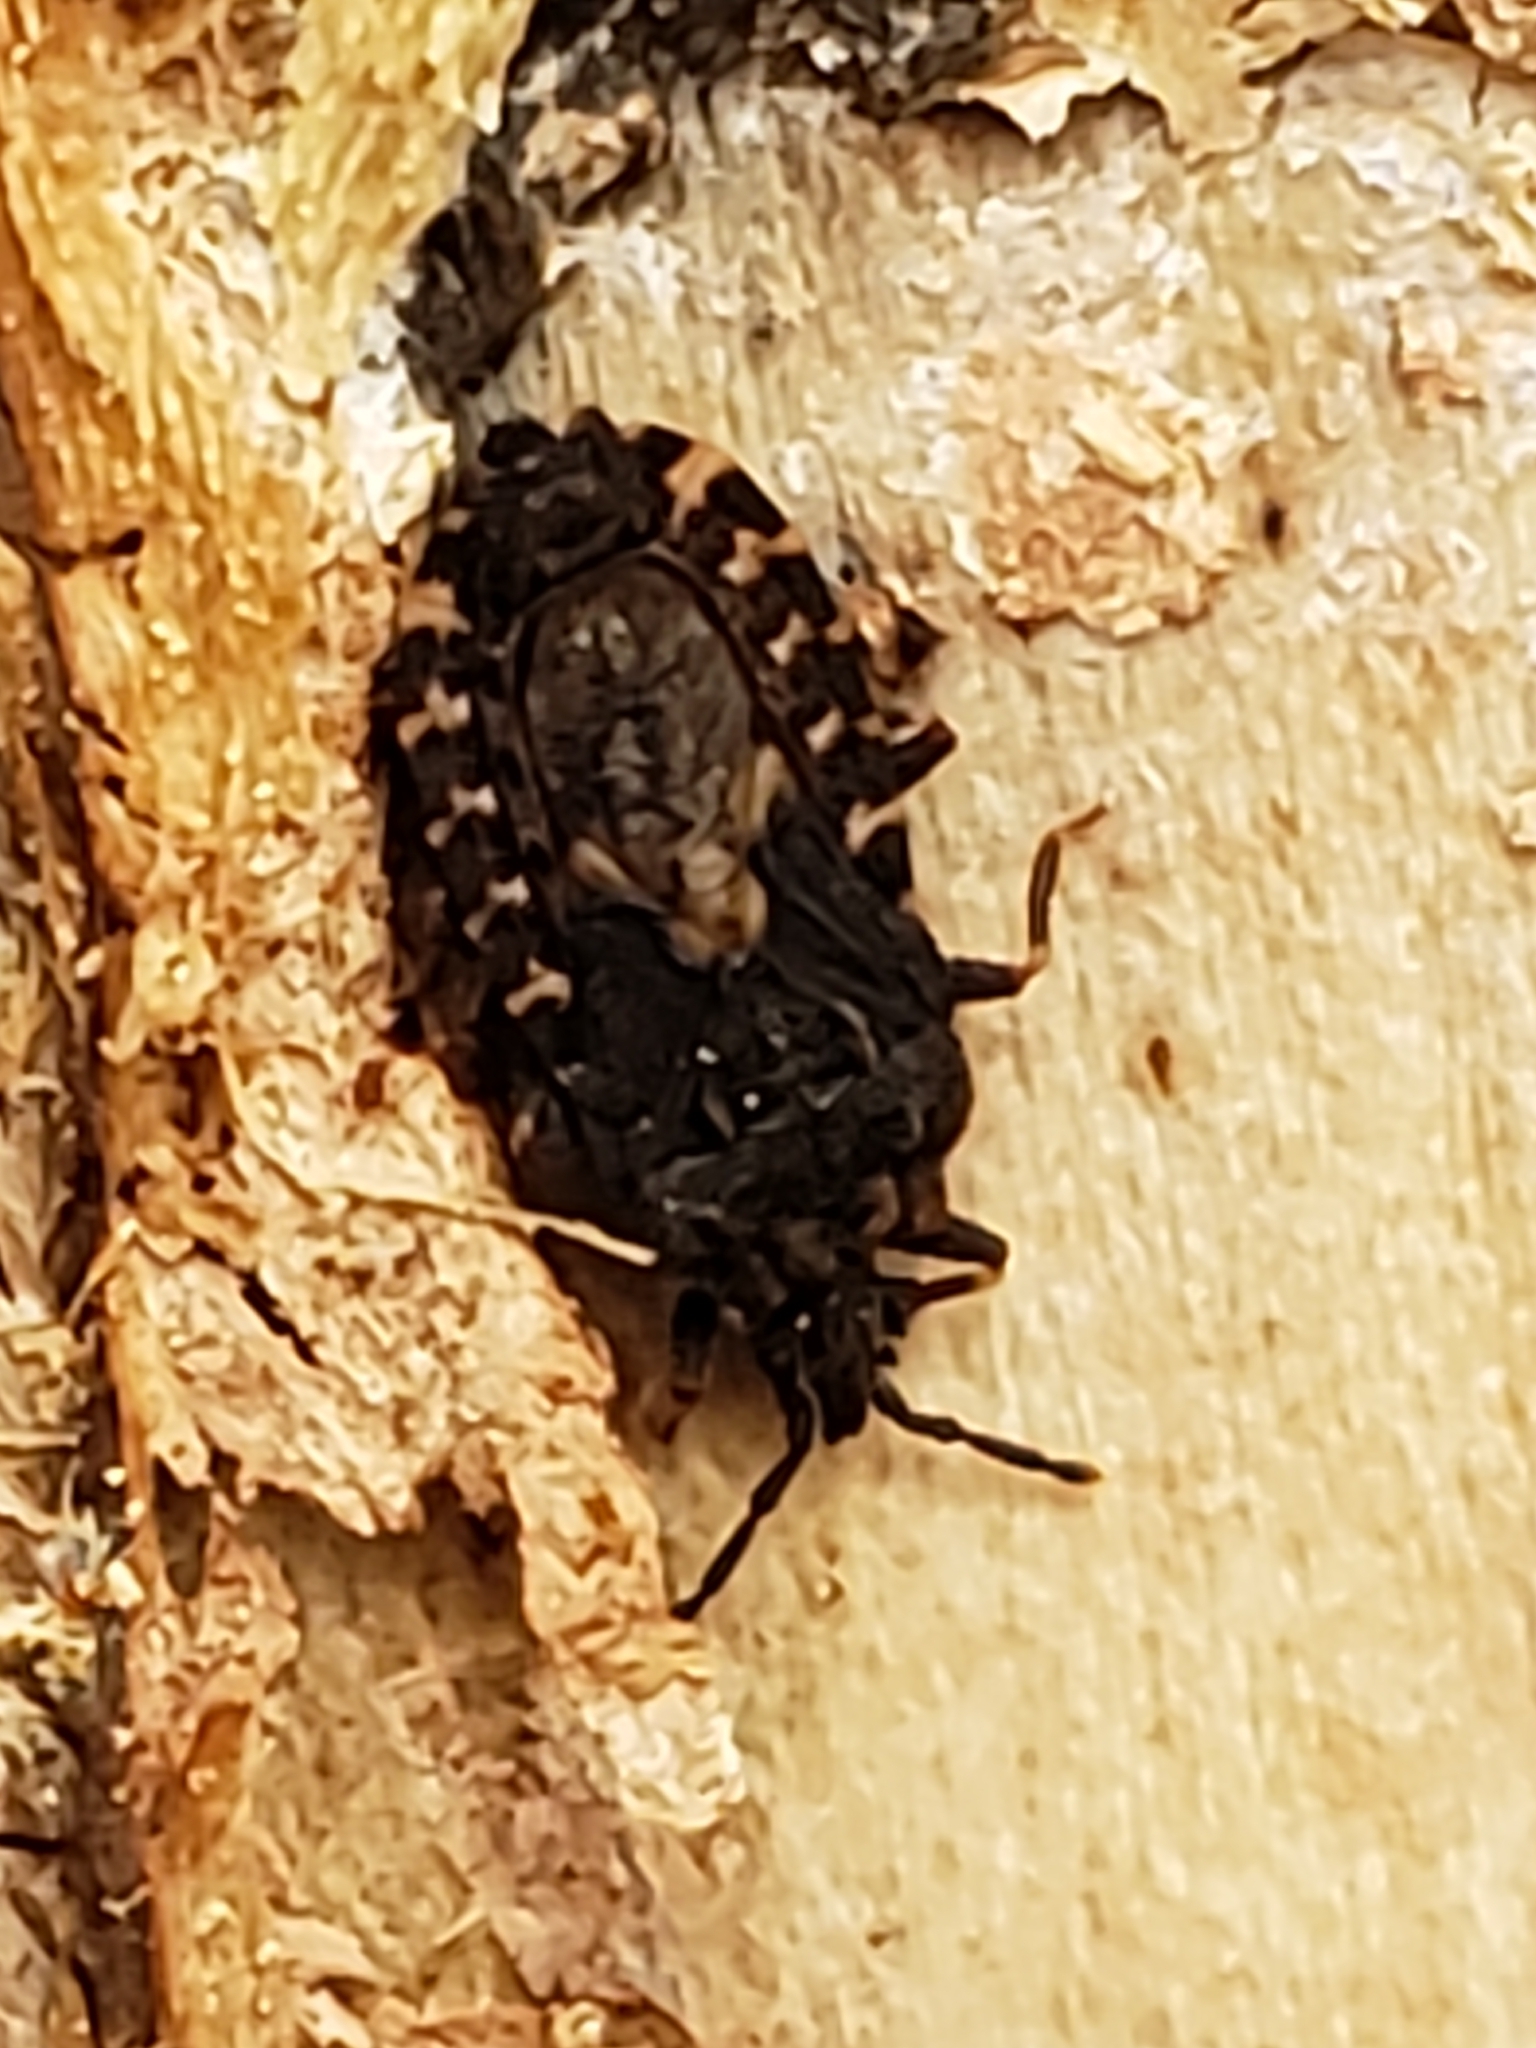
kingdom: Animalia
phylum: Arthropoda
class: Insecta
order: Hemiptera
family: Aradidae
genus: Mezira
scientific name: Mezira
